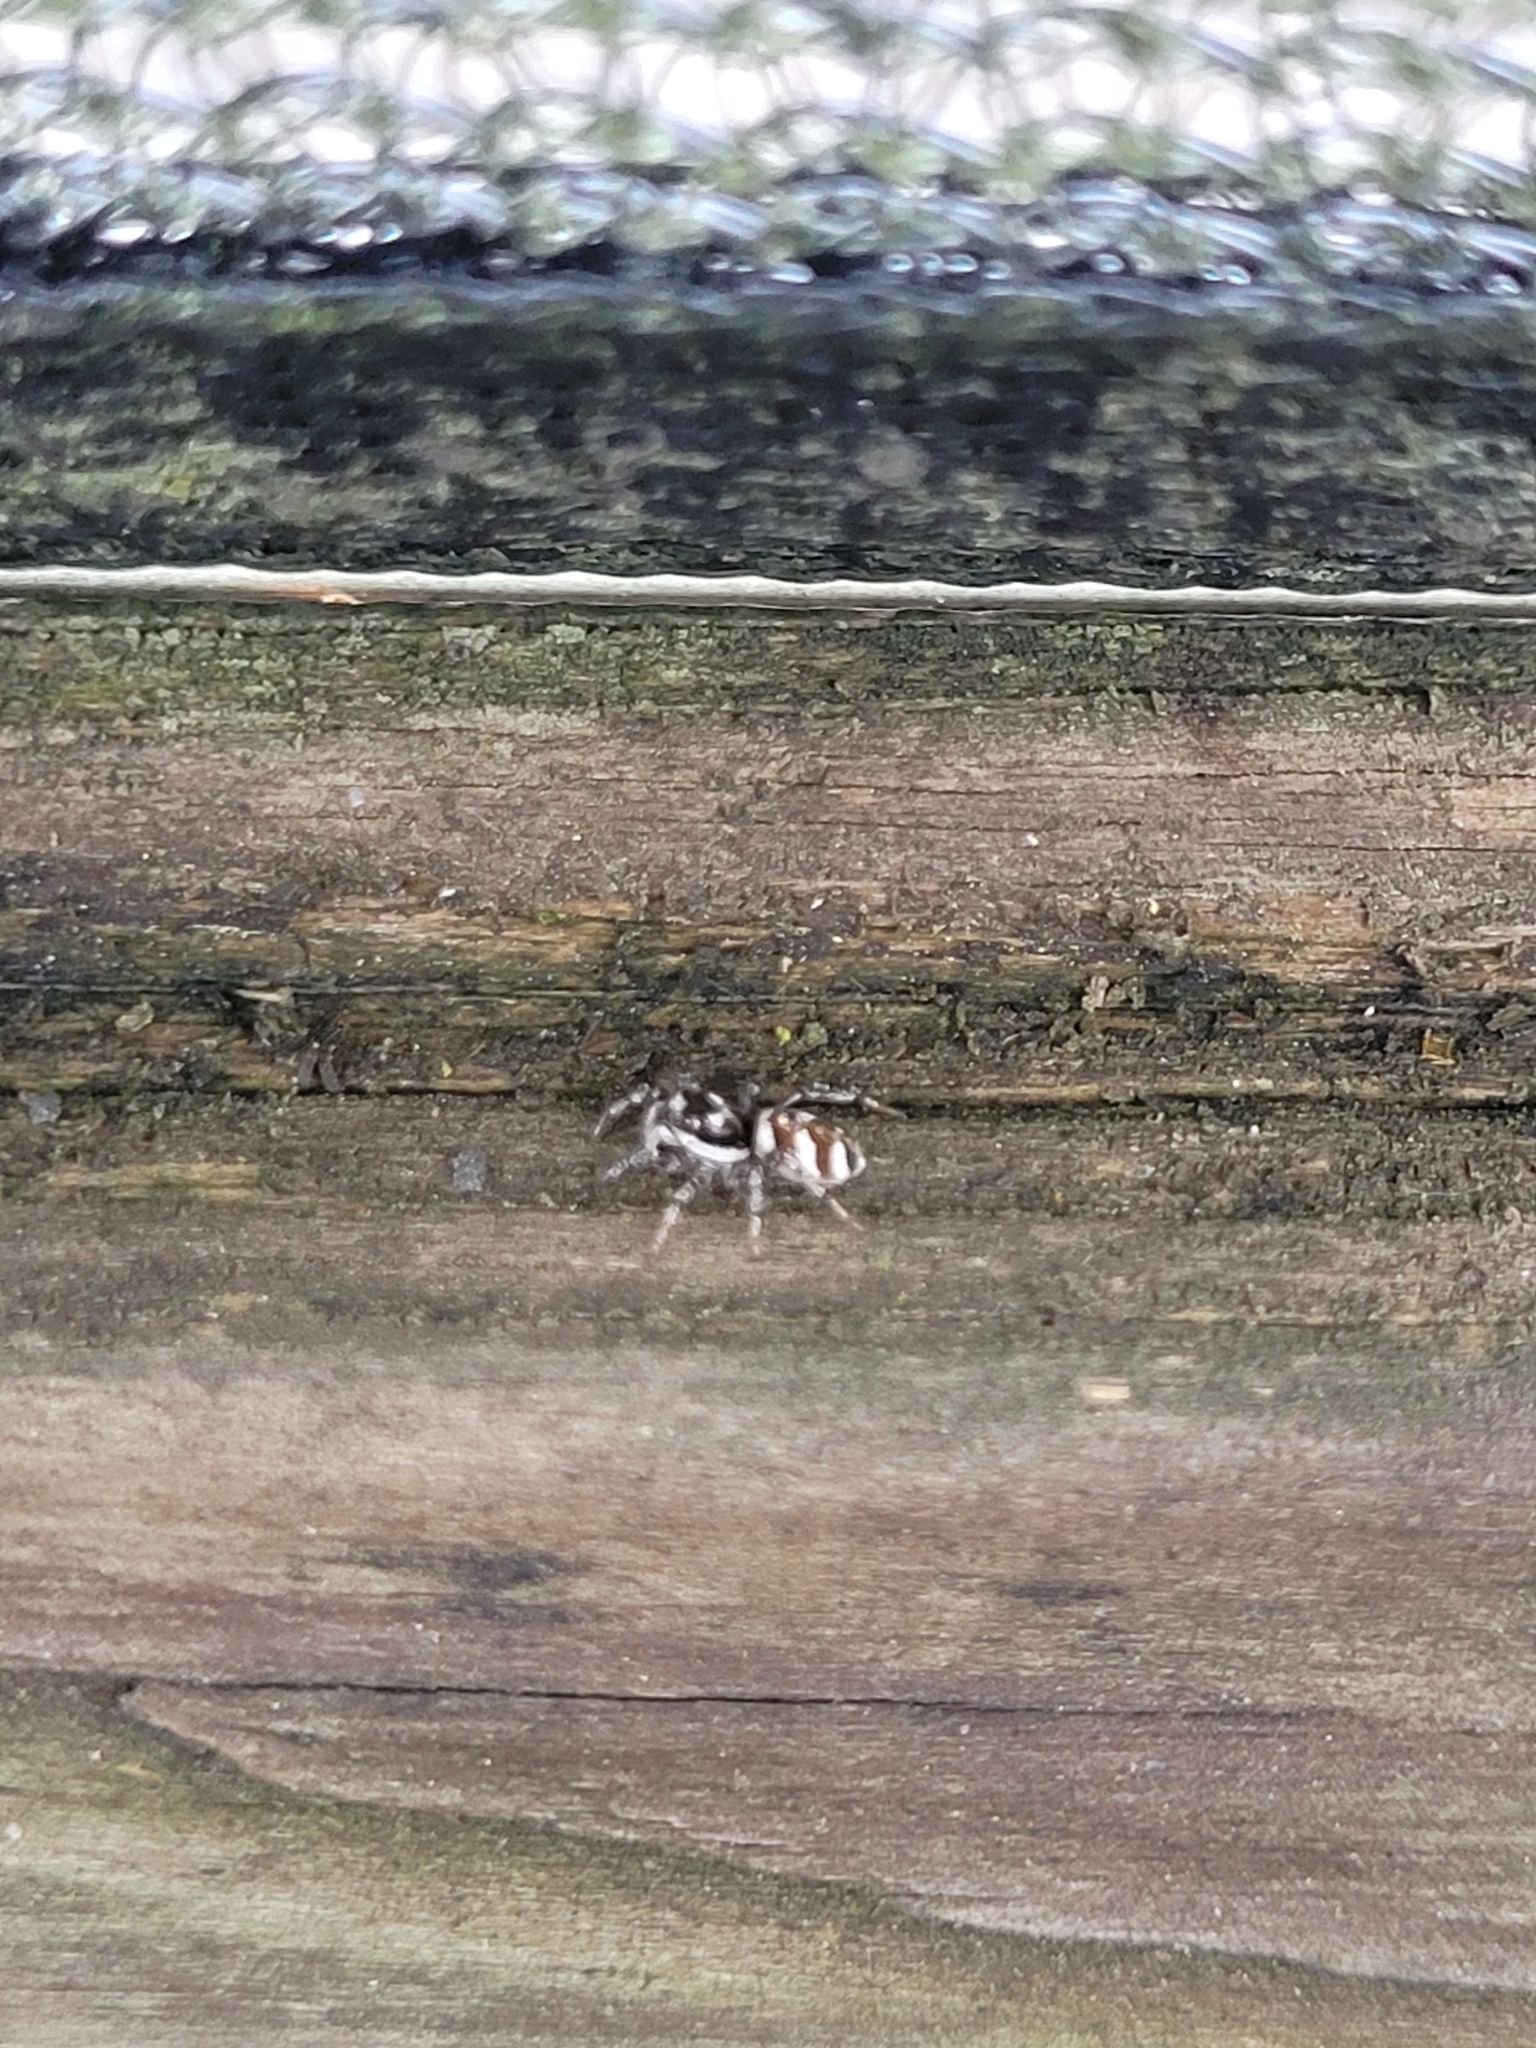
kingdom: Animalia
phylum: Arthropoda
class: Arachnida
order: Araneae
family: Salticidae
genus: Salticus
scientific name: Salticus scenicus
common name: Zebra jumper
